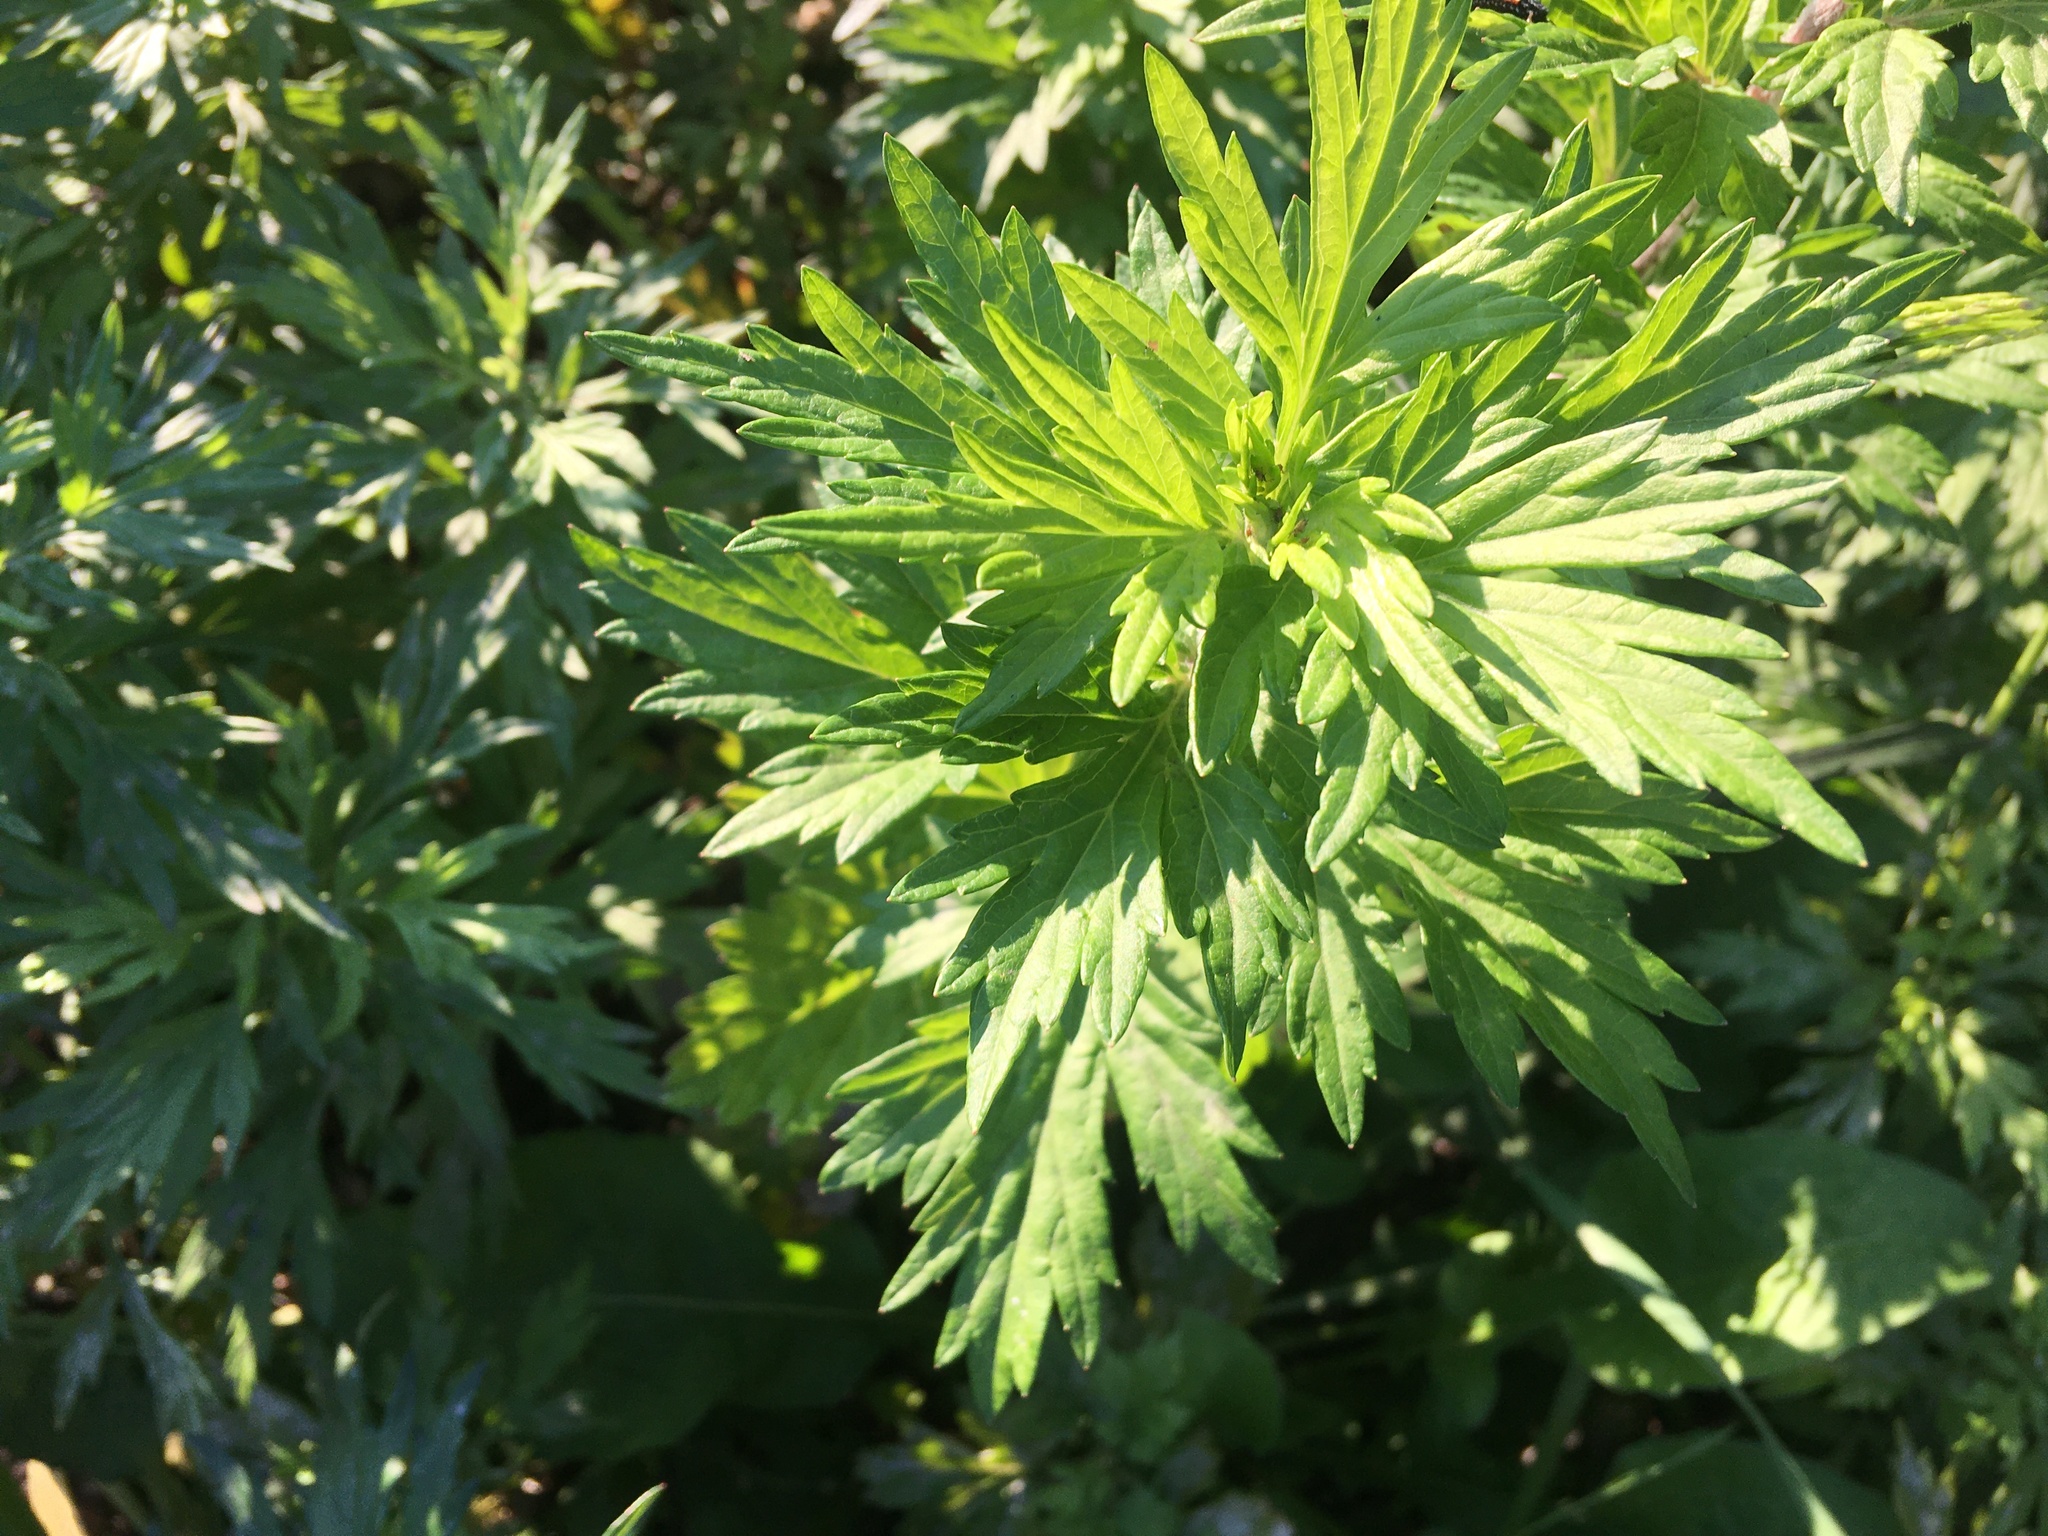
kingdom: Plantae
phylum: Tracheophyta
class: Magnoliopsida
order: Asterales
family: Asteraceae
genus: Artemisia
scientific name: Artemisia vulgaris
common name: Mugwort
